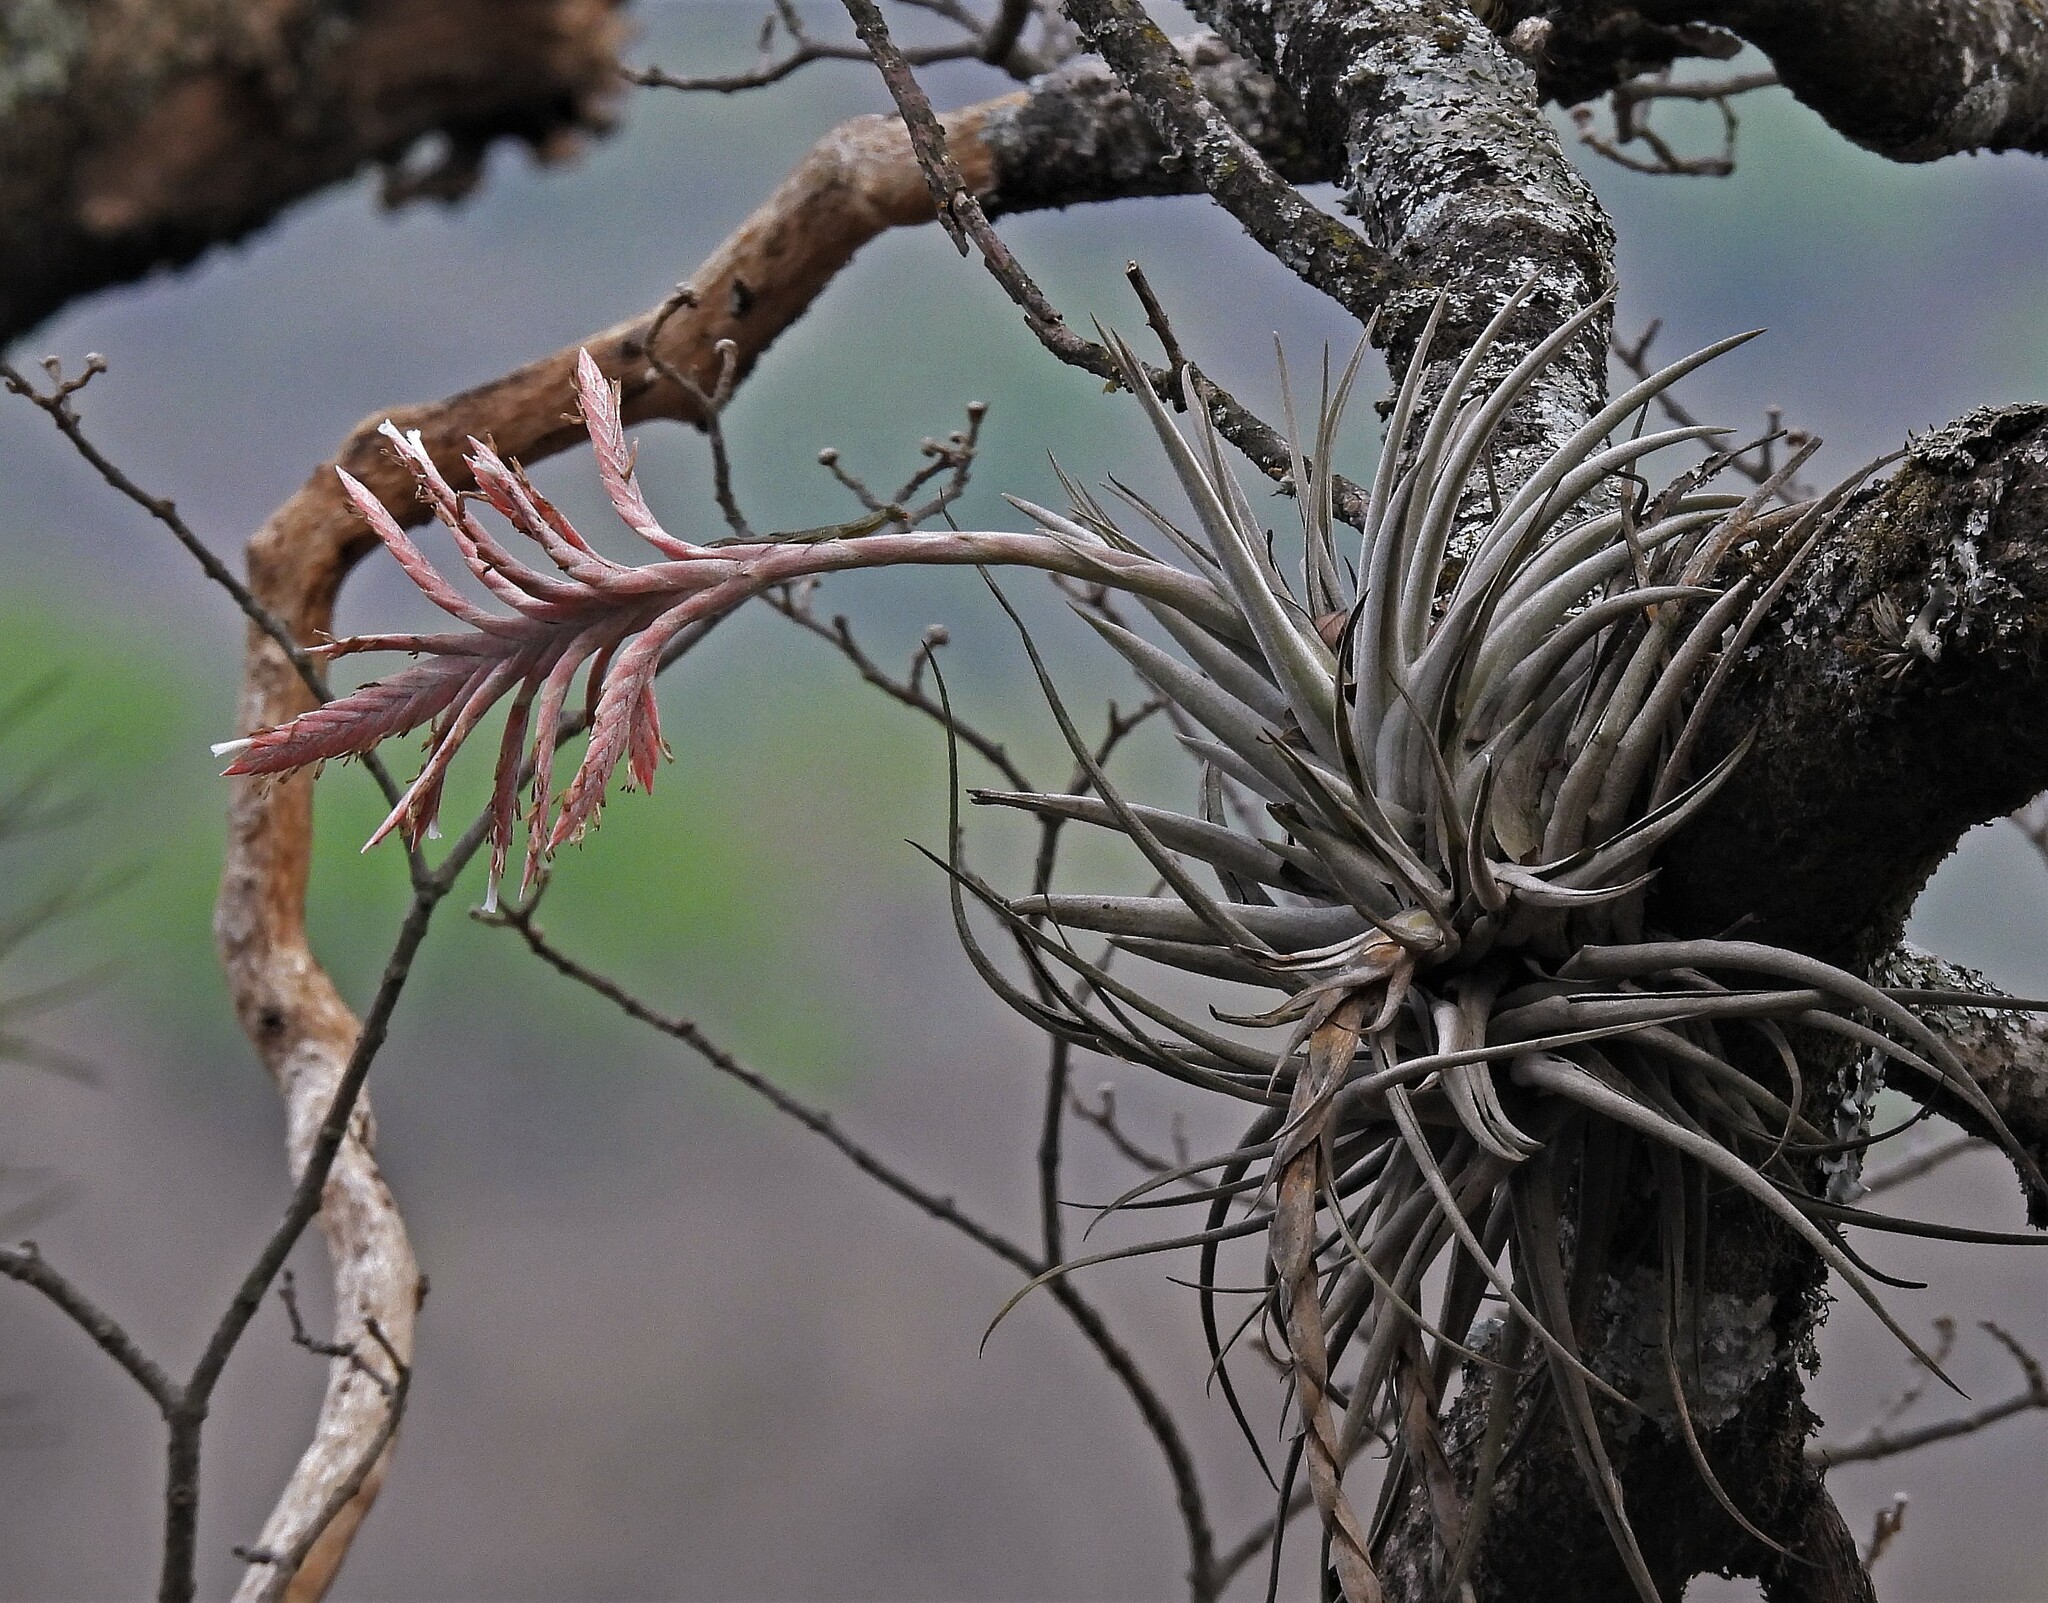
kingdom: Plantae
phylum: Tracheophyta
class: Liliopsida
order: Poales
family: Bromeliaceae
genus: Tillandsia
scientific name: Tillandsia didisticha
